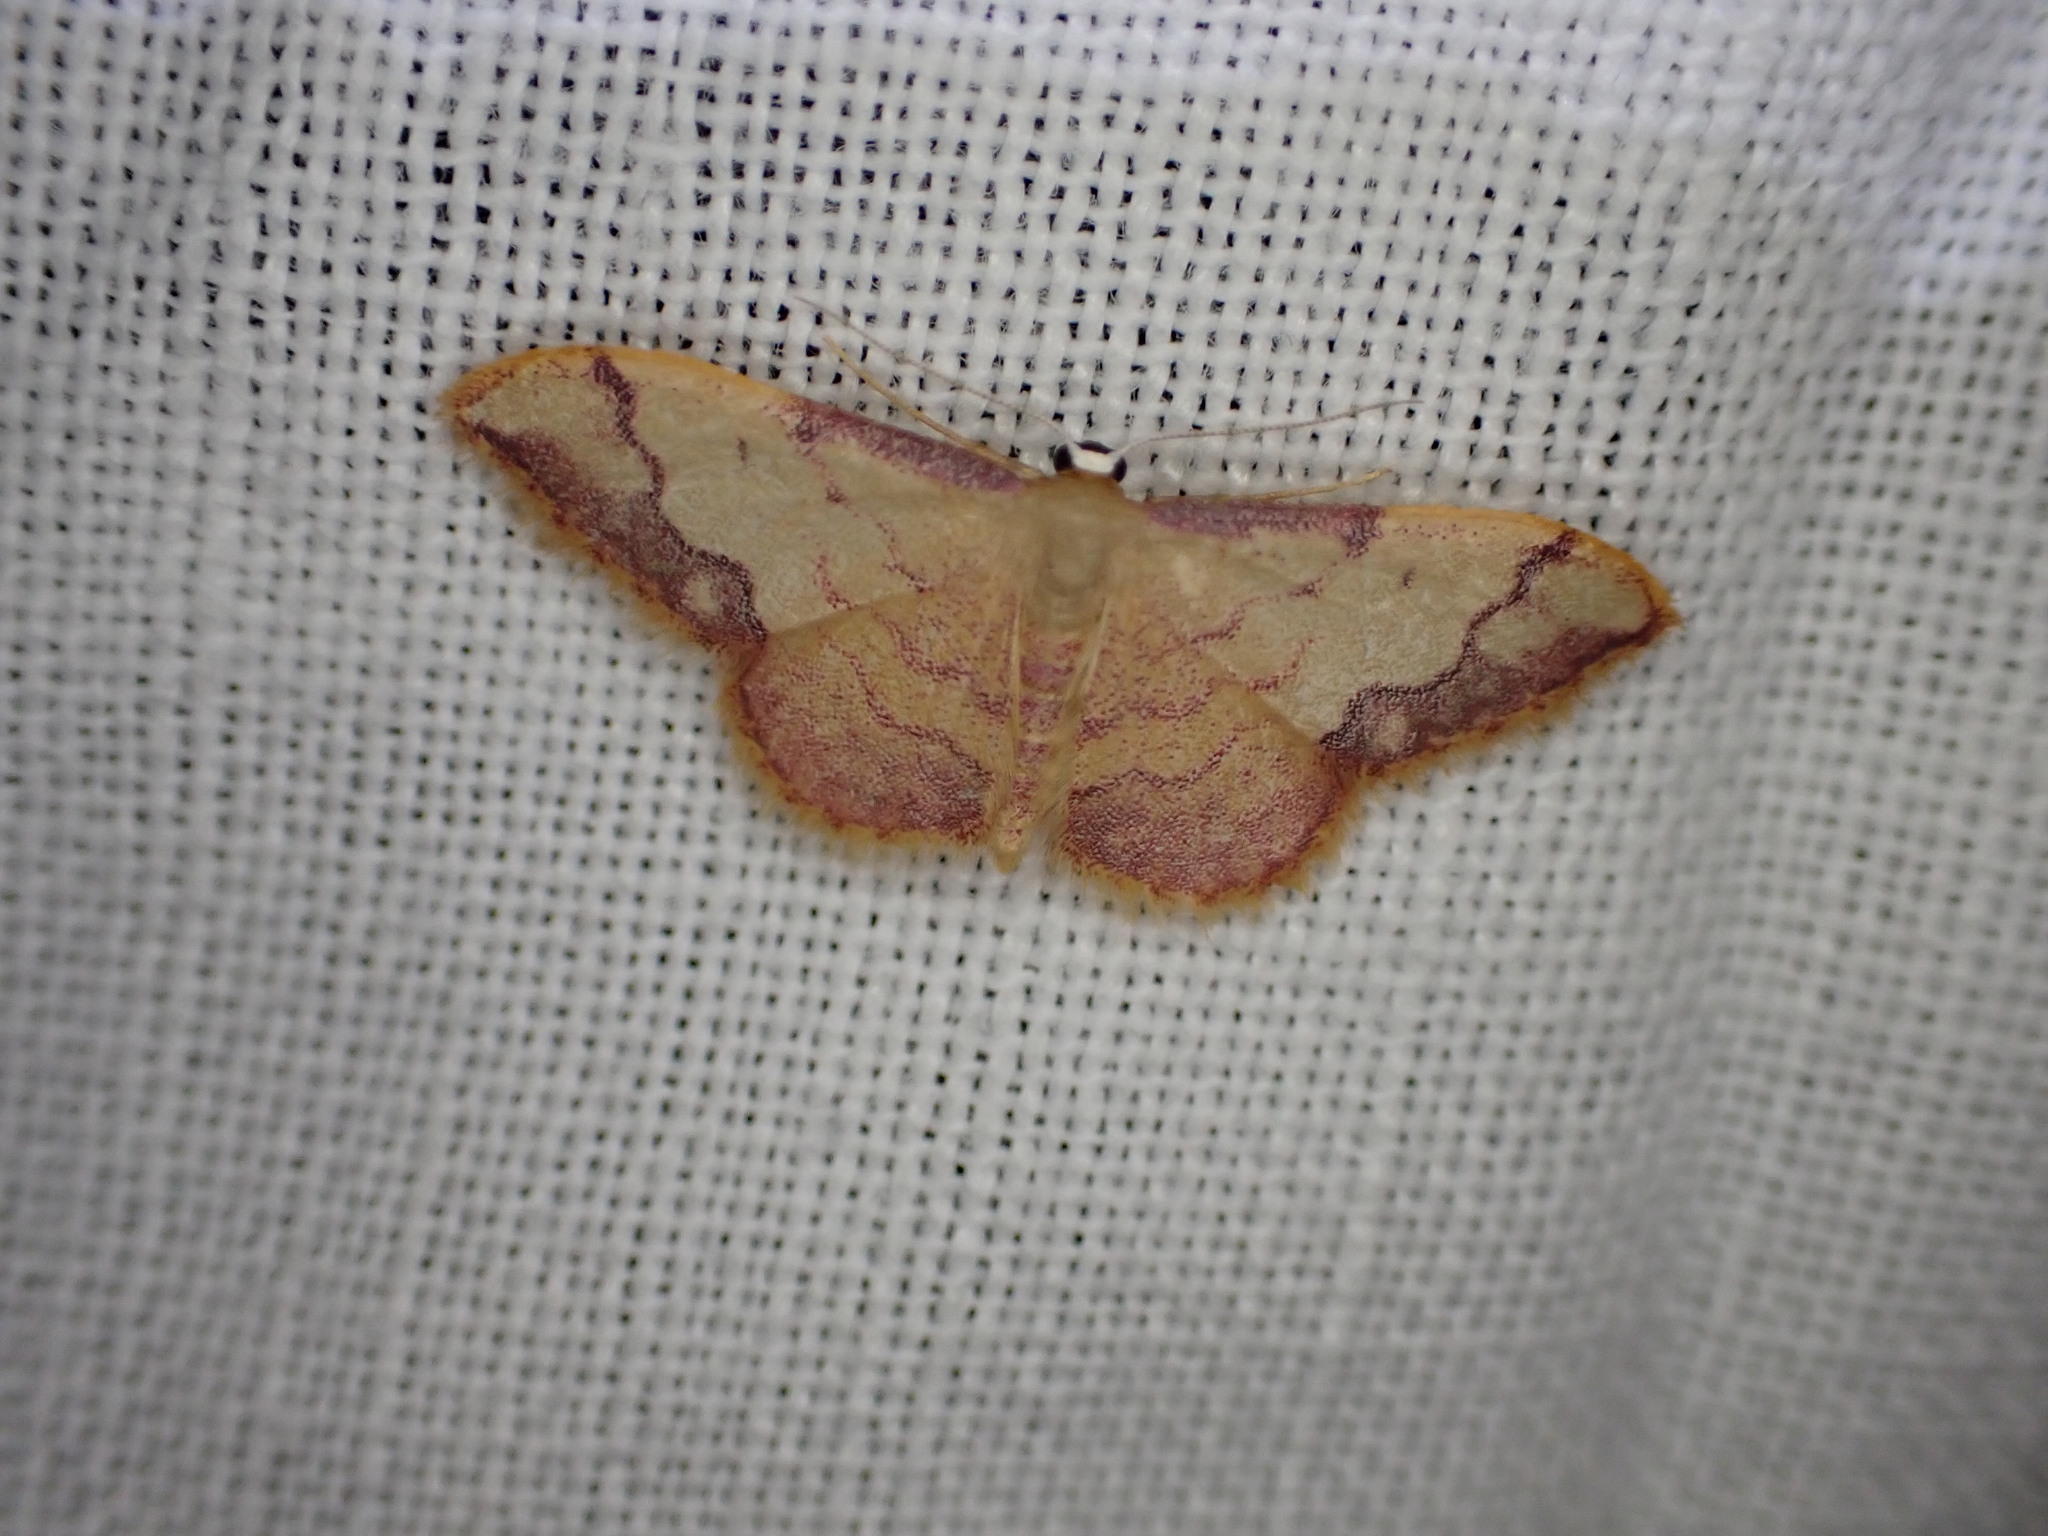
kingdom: Animalia
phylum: Arthropoda
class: Insecta
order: Lepidoptera
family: Geometridae
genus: Idaea
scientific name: Idaea ostrinaria
